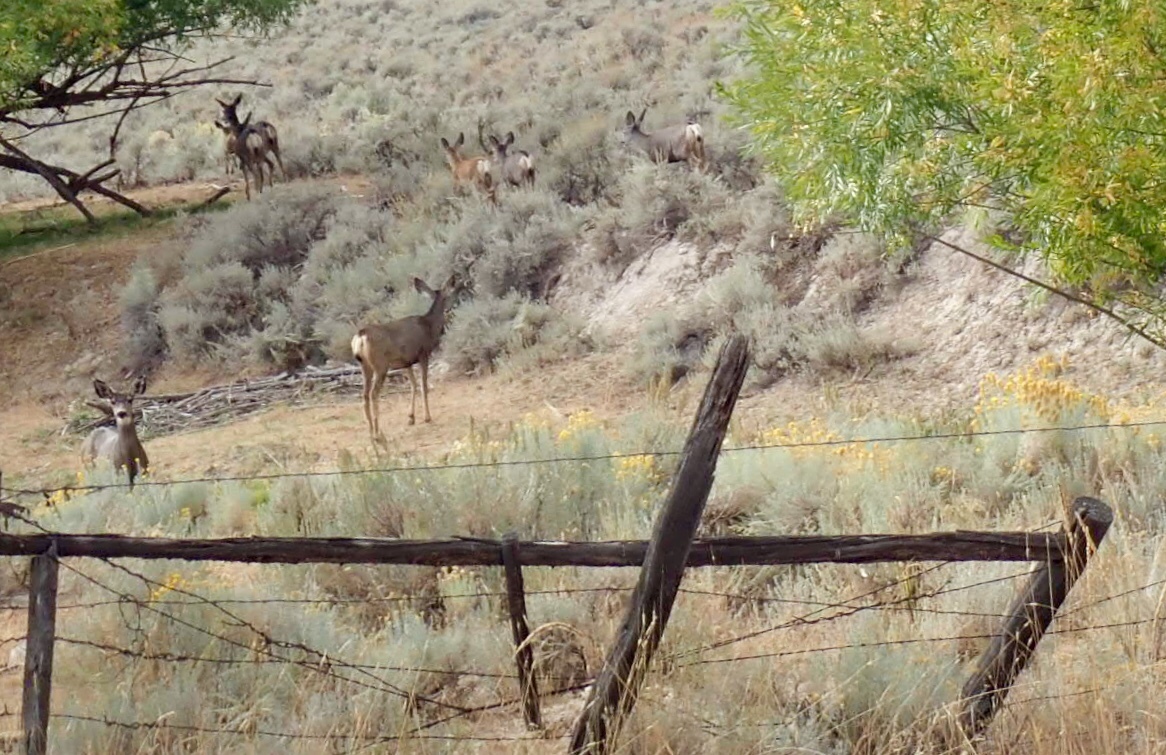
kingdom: Animalia
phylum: Chordata
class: Mammalia
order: Artiodactyla
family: Cervidae
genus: Odocoileus
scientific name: Odocoileus hemionus
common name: Mule deer
